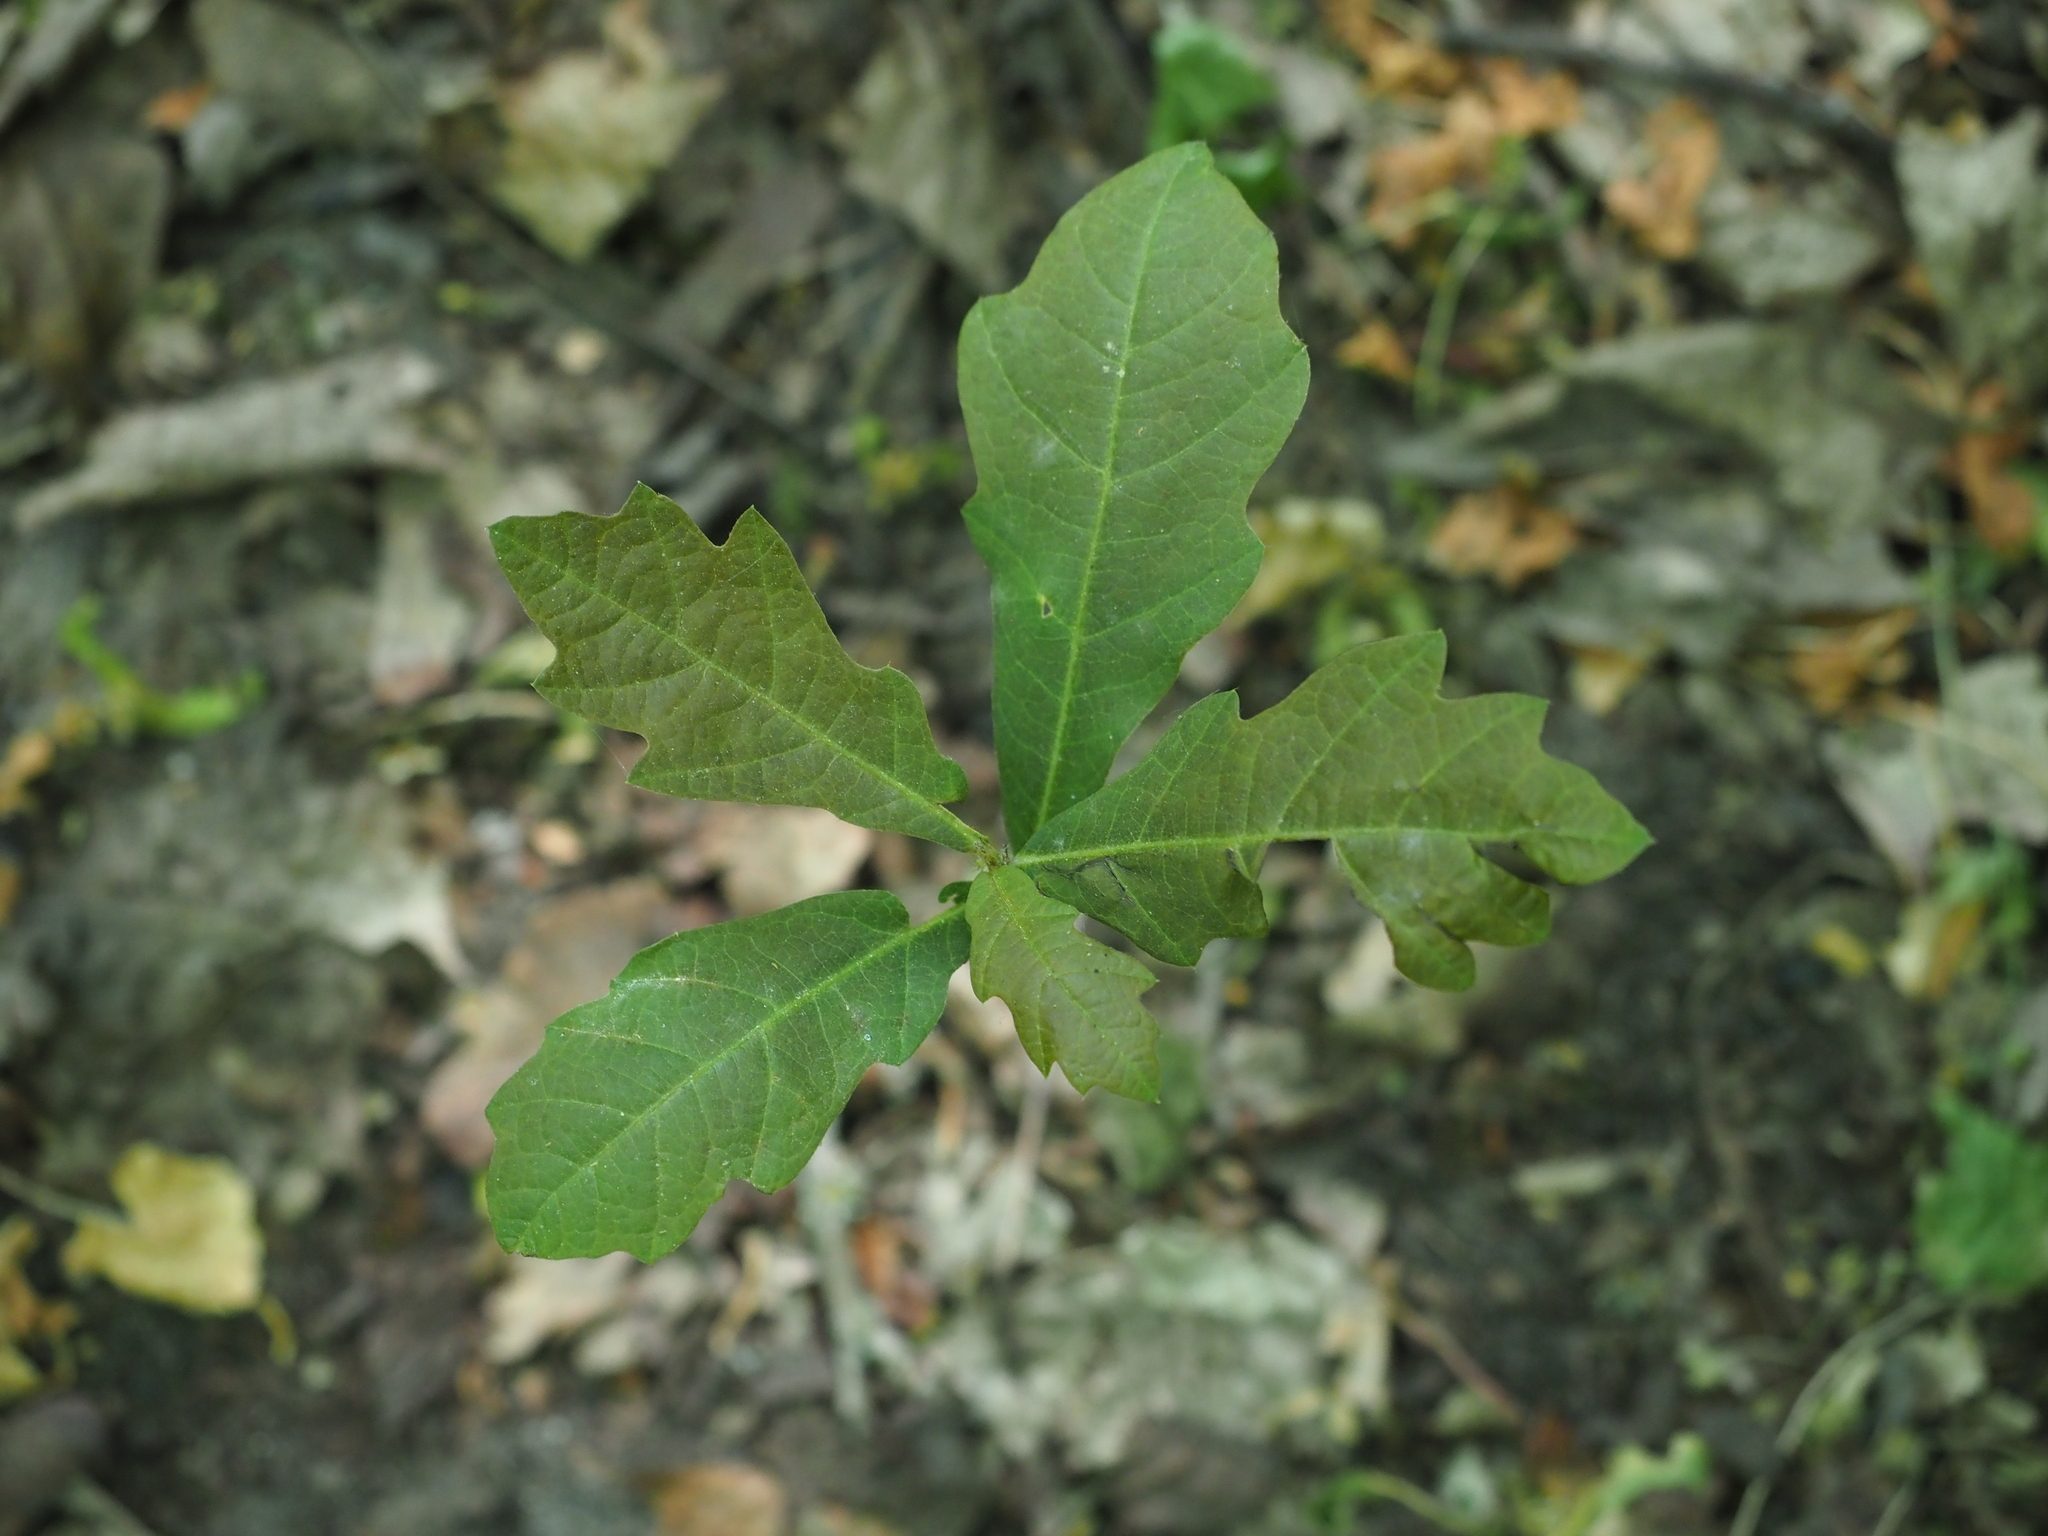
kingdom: Plantae
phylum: Tracheophyta
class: Magnoliopsida
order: Fagales
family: Fagaceae
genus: Quercus
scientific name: Quercus robur
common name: Pedunculate oak
